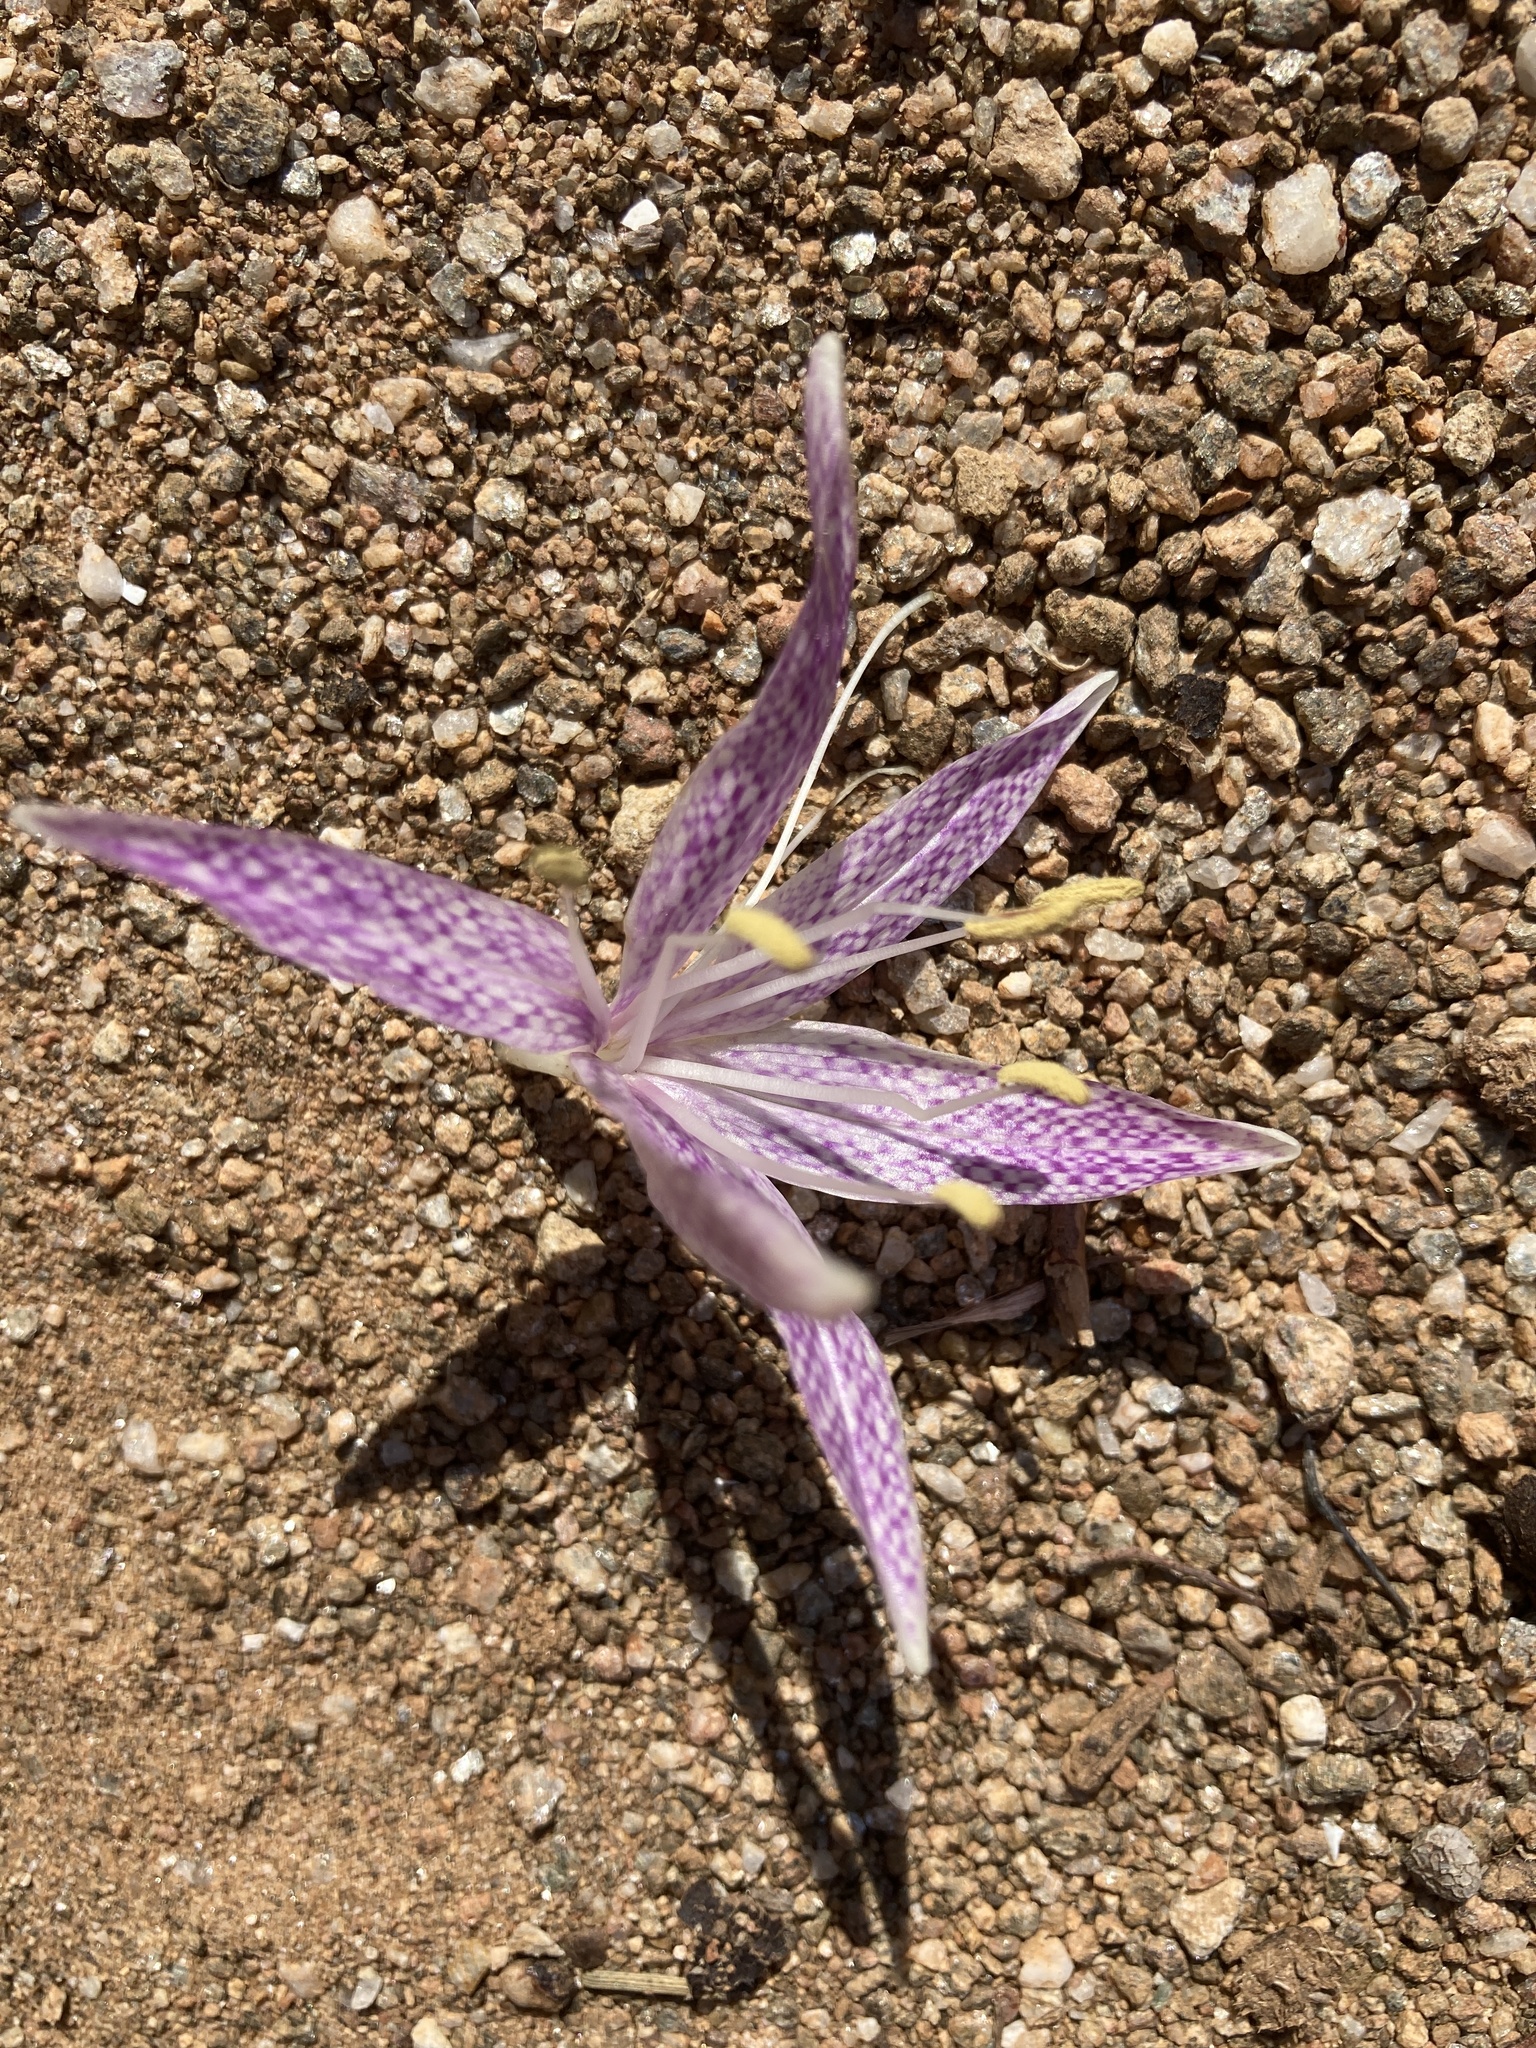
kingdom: Plantae
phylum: Tracheophyta
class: Liliopsida
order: Liliales
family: Colchicaceae
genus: Colchicum
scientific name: Colchicum variegatum
